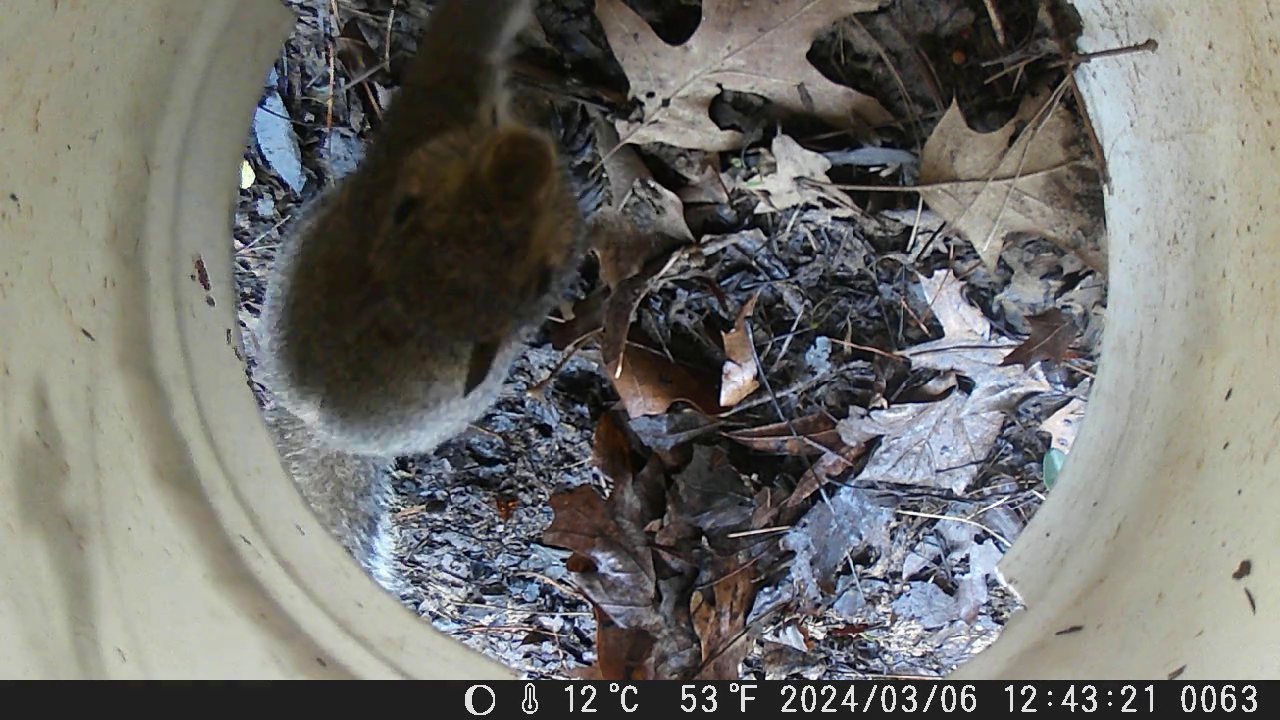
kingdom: Animalia
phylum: Chordata
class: Mammalia
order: Rodentia
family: Sciuridae
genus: Sciurus
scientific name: Sciurus carolinensis
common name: Eastern gray squirrel
